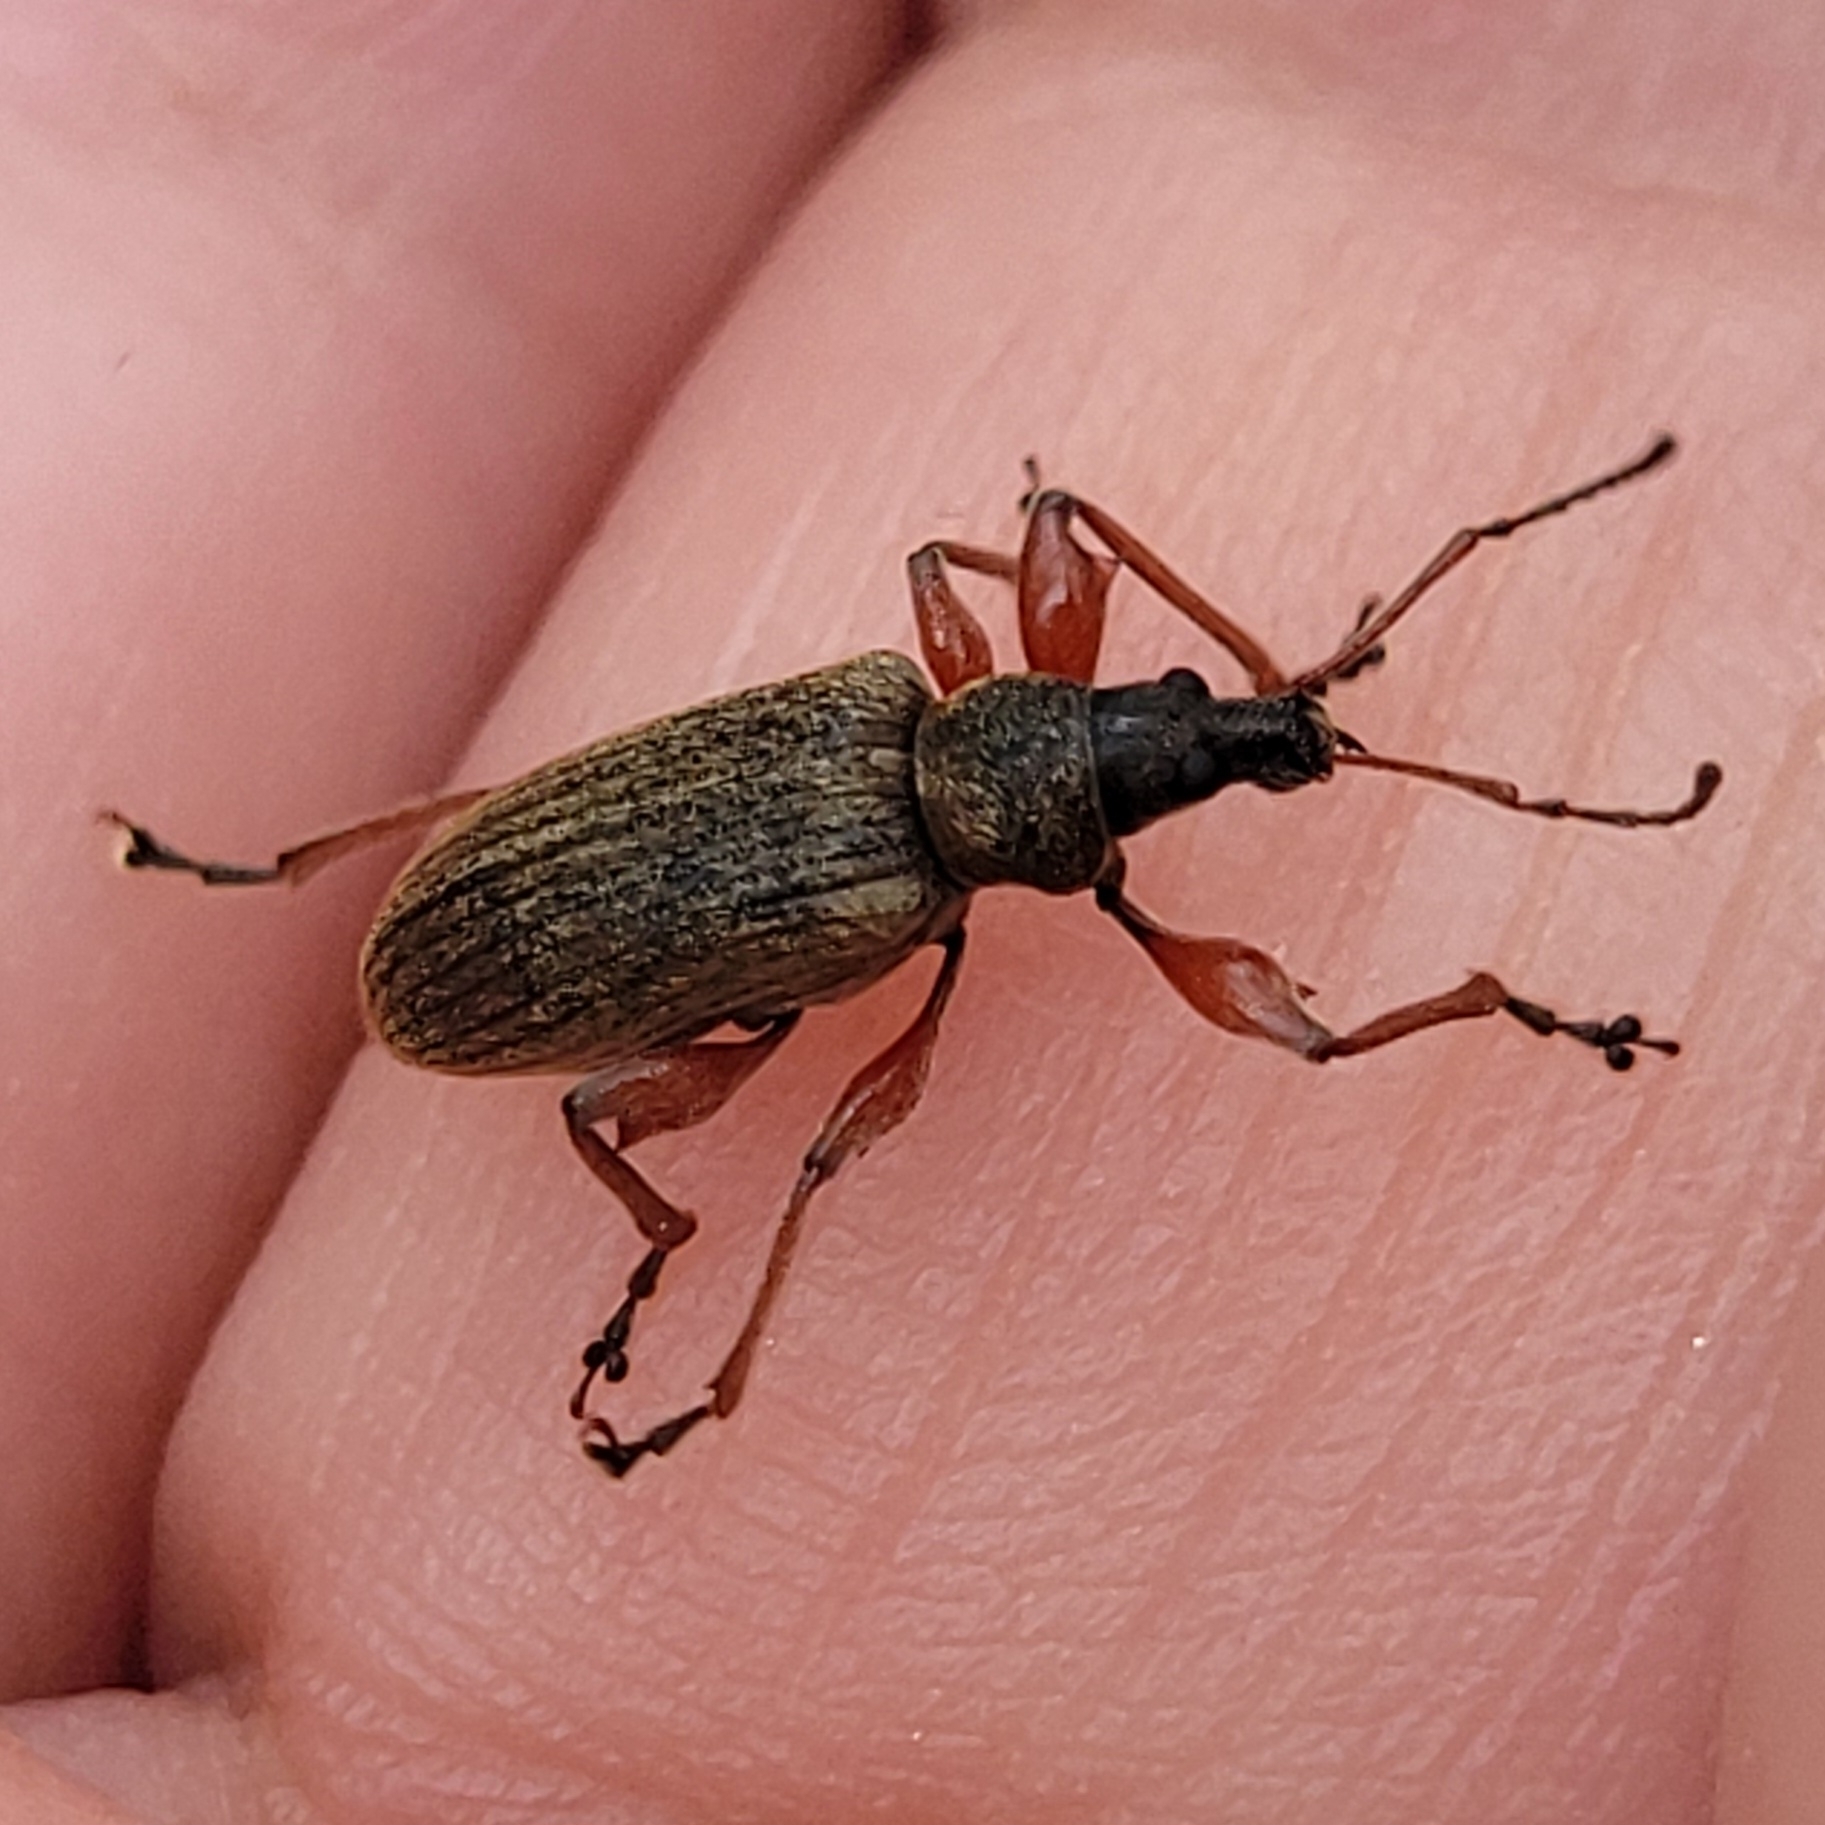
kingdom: Animalia
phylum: Arthropoda
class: Insecta
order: Coleoptera
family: Curculionidae
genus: Phyllobius
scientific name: Phyllobius glaucus
